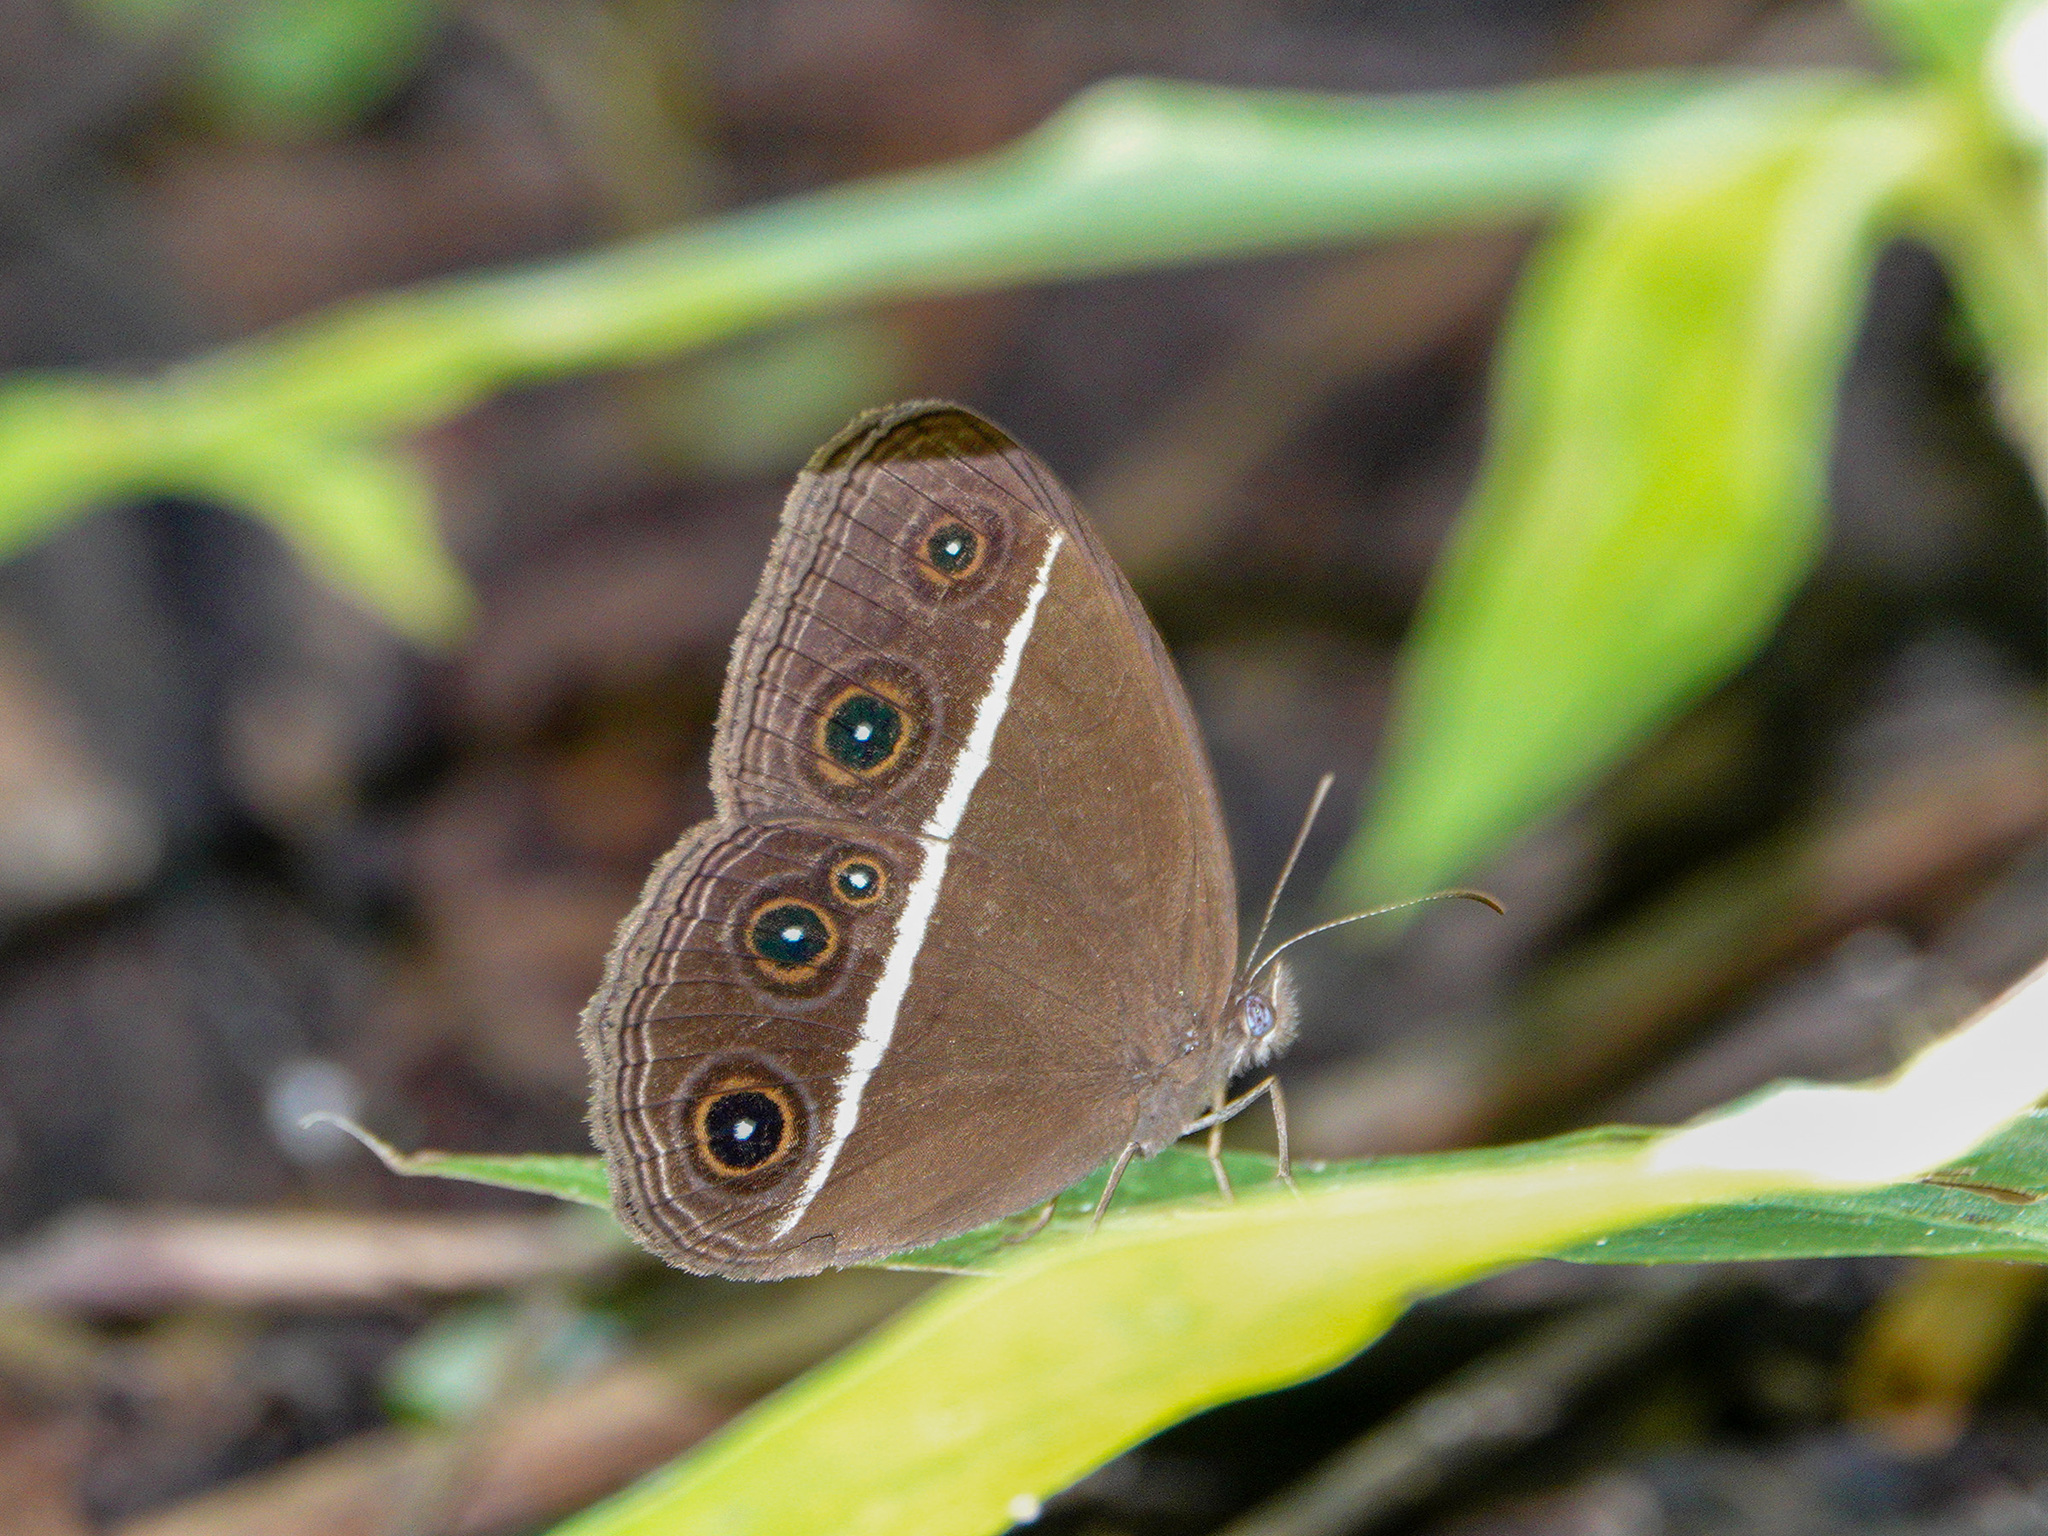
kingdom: Animalia
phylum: Arthropoda
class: Insecta
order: Lepidoptera
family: Nymphalidae
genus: Orsotriaena
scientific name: Orsotriaena medus
